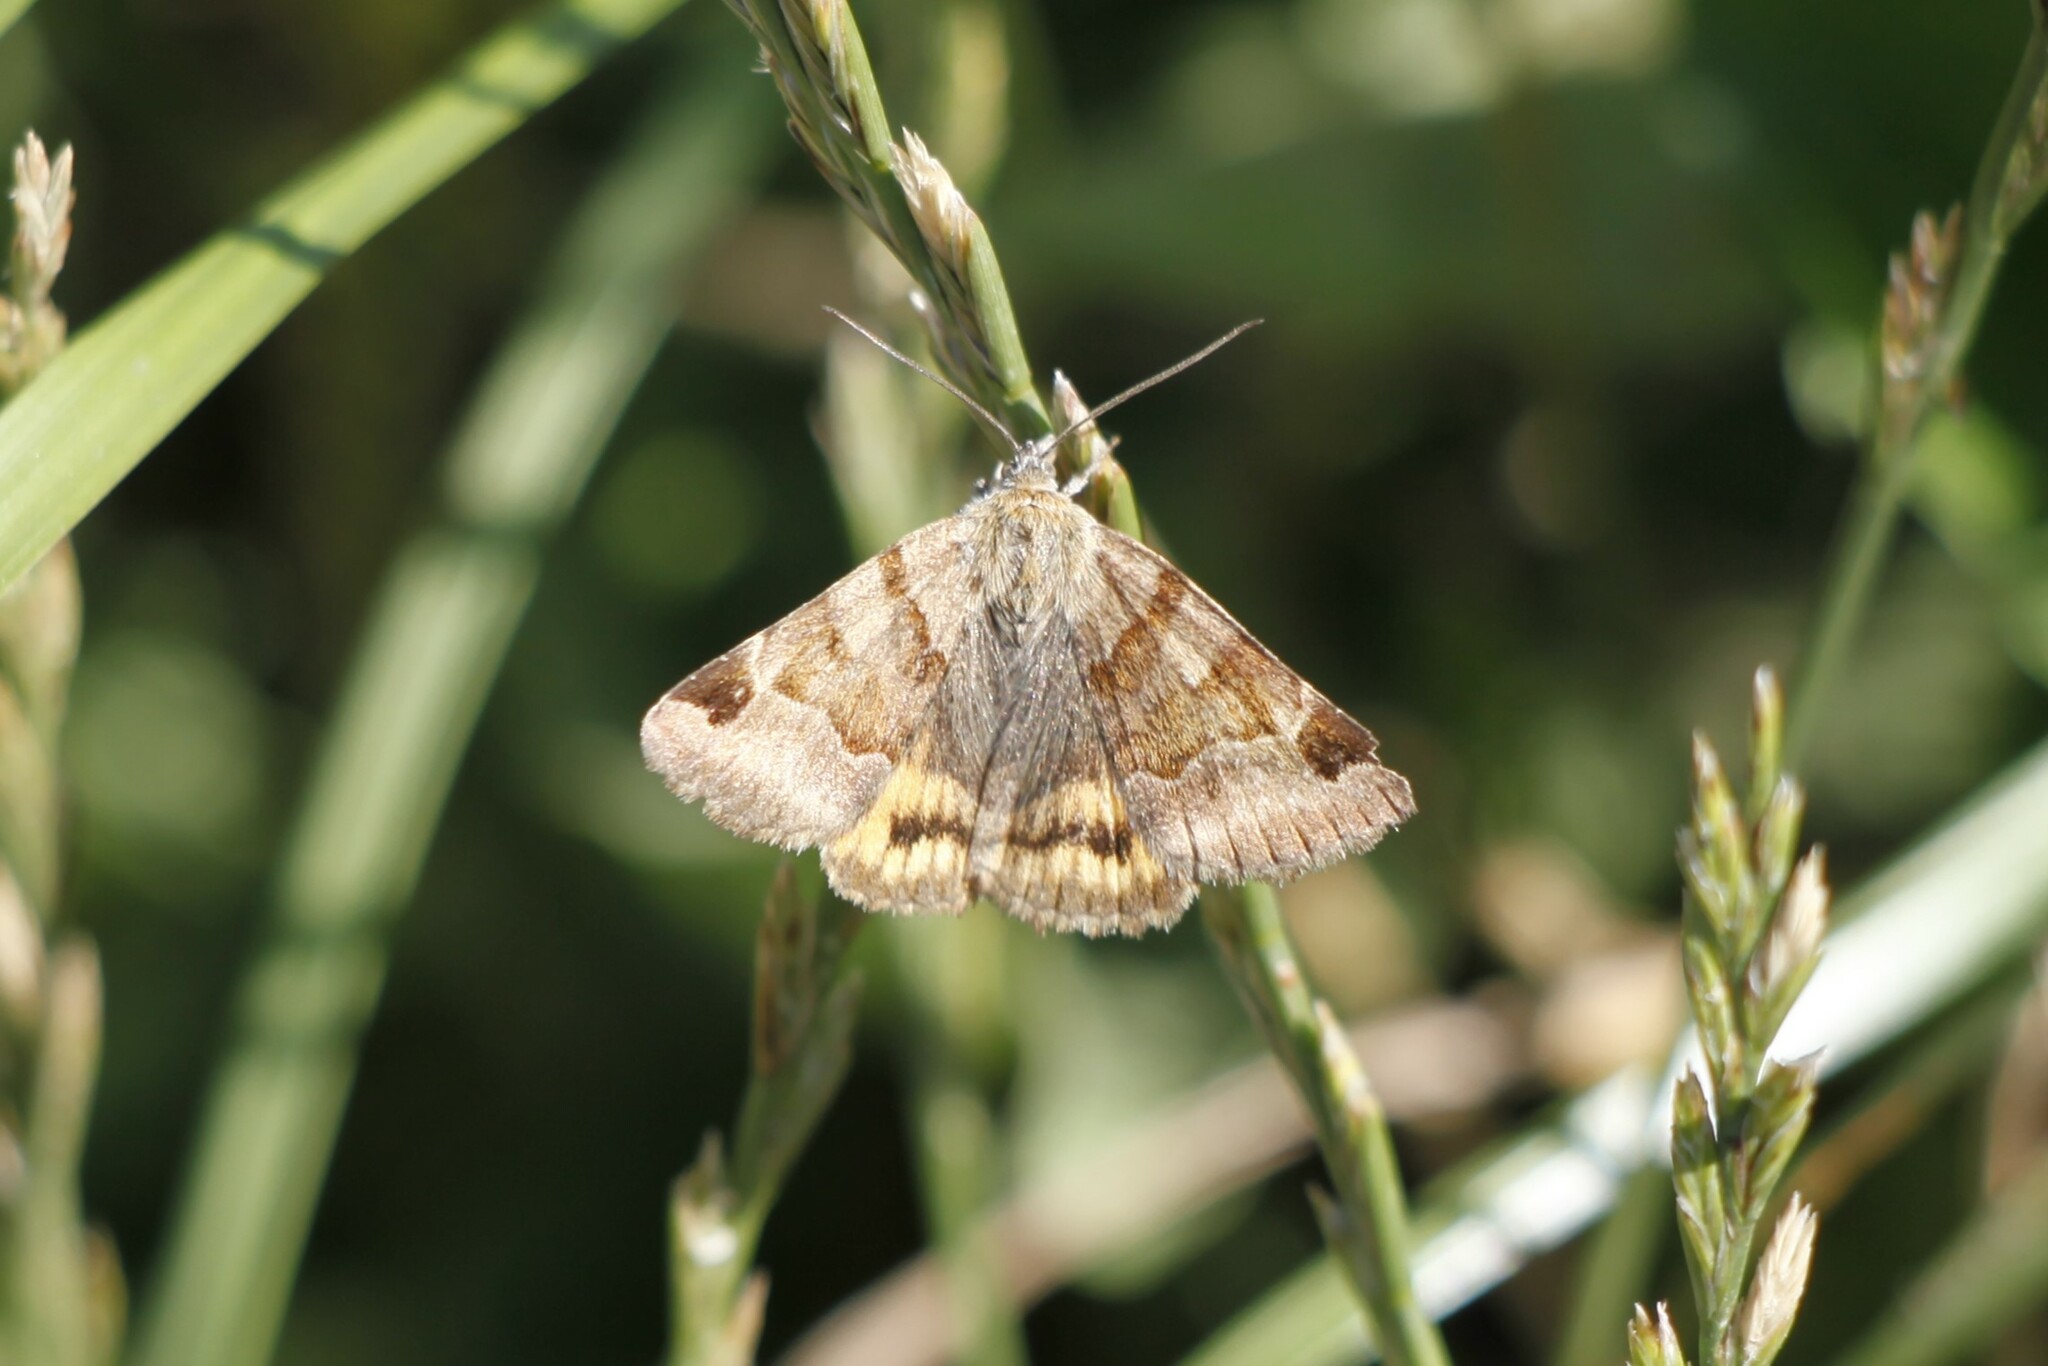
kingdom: Animalia
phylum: Arthropoda
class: Insecta
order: Lepidoptera
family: Erebidae
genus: Euclidia
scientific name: Euclidia glyphica
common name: Burnet companion
